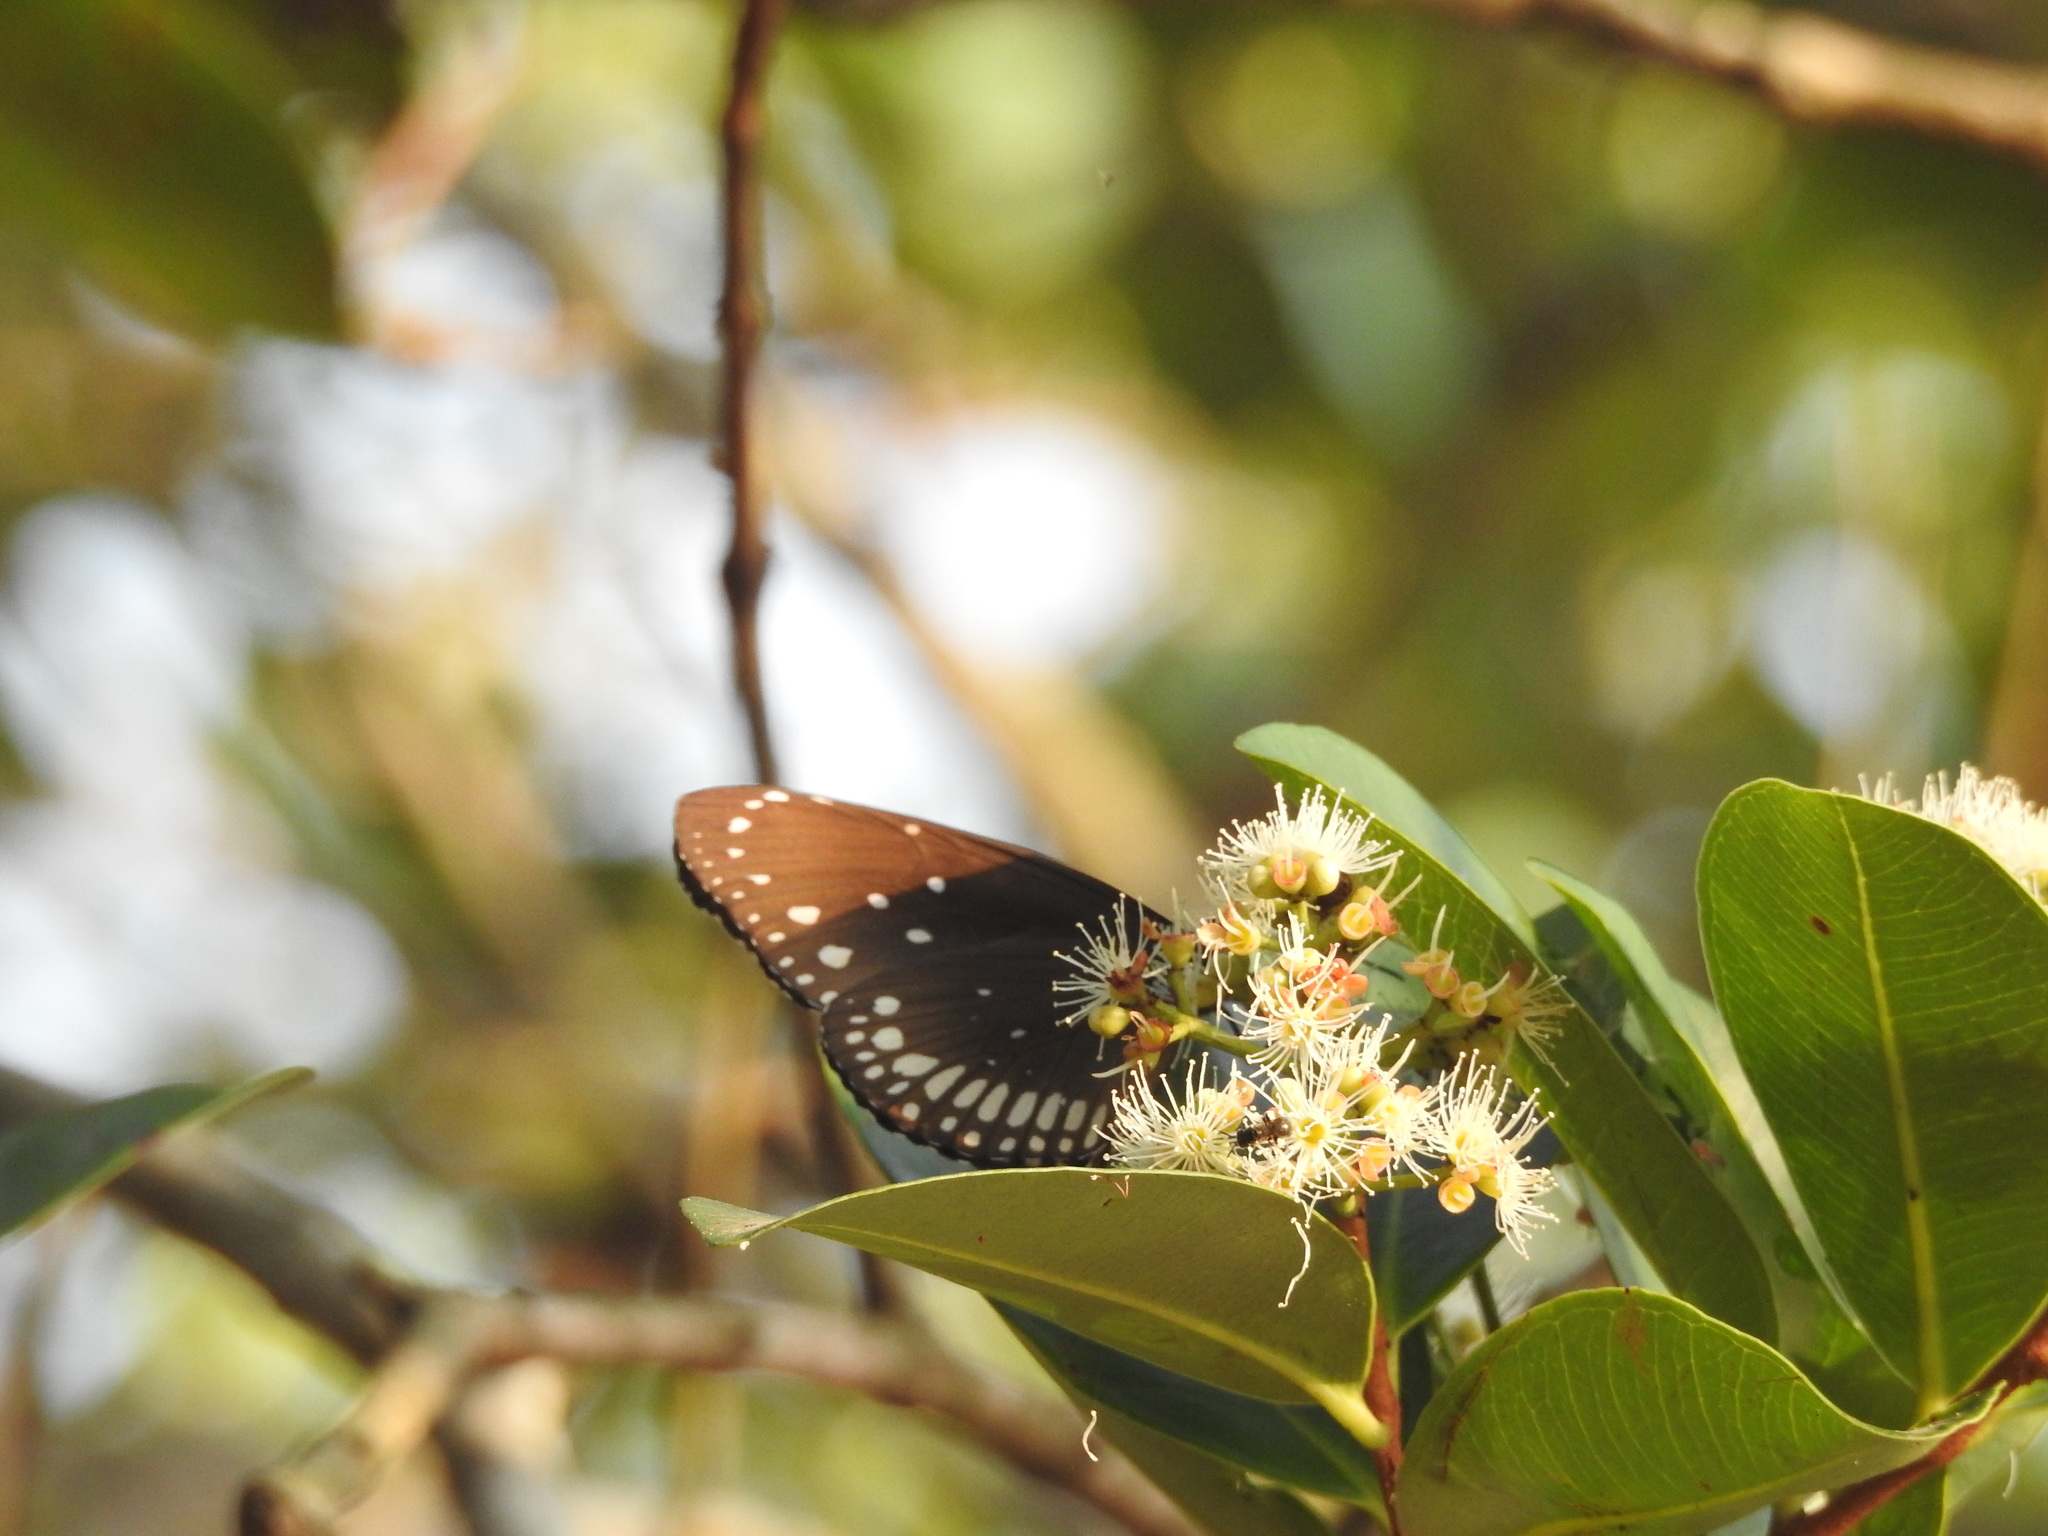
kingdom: Animalia
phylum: Arthropoda
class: Insecta
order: Lepidoptera
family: Nymphalidae
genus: Euploea
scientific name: Euploea core
